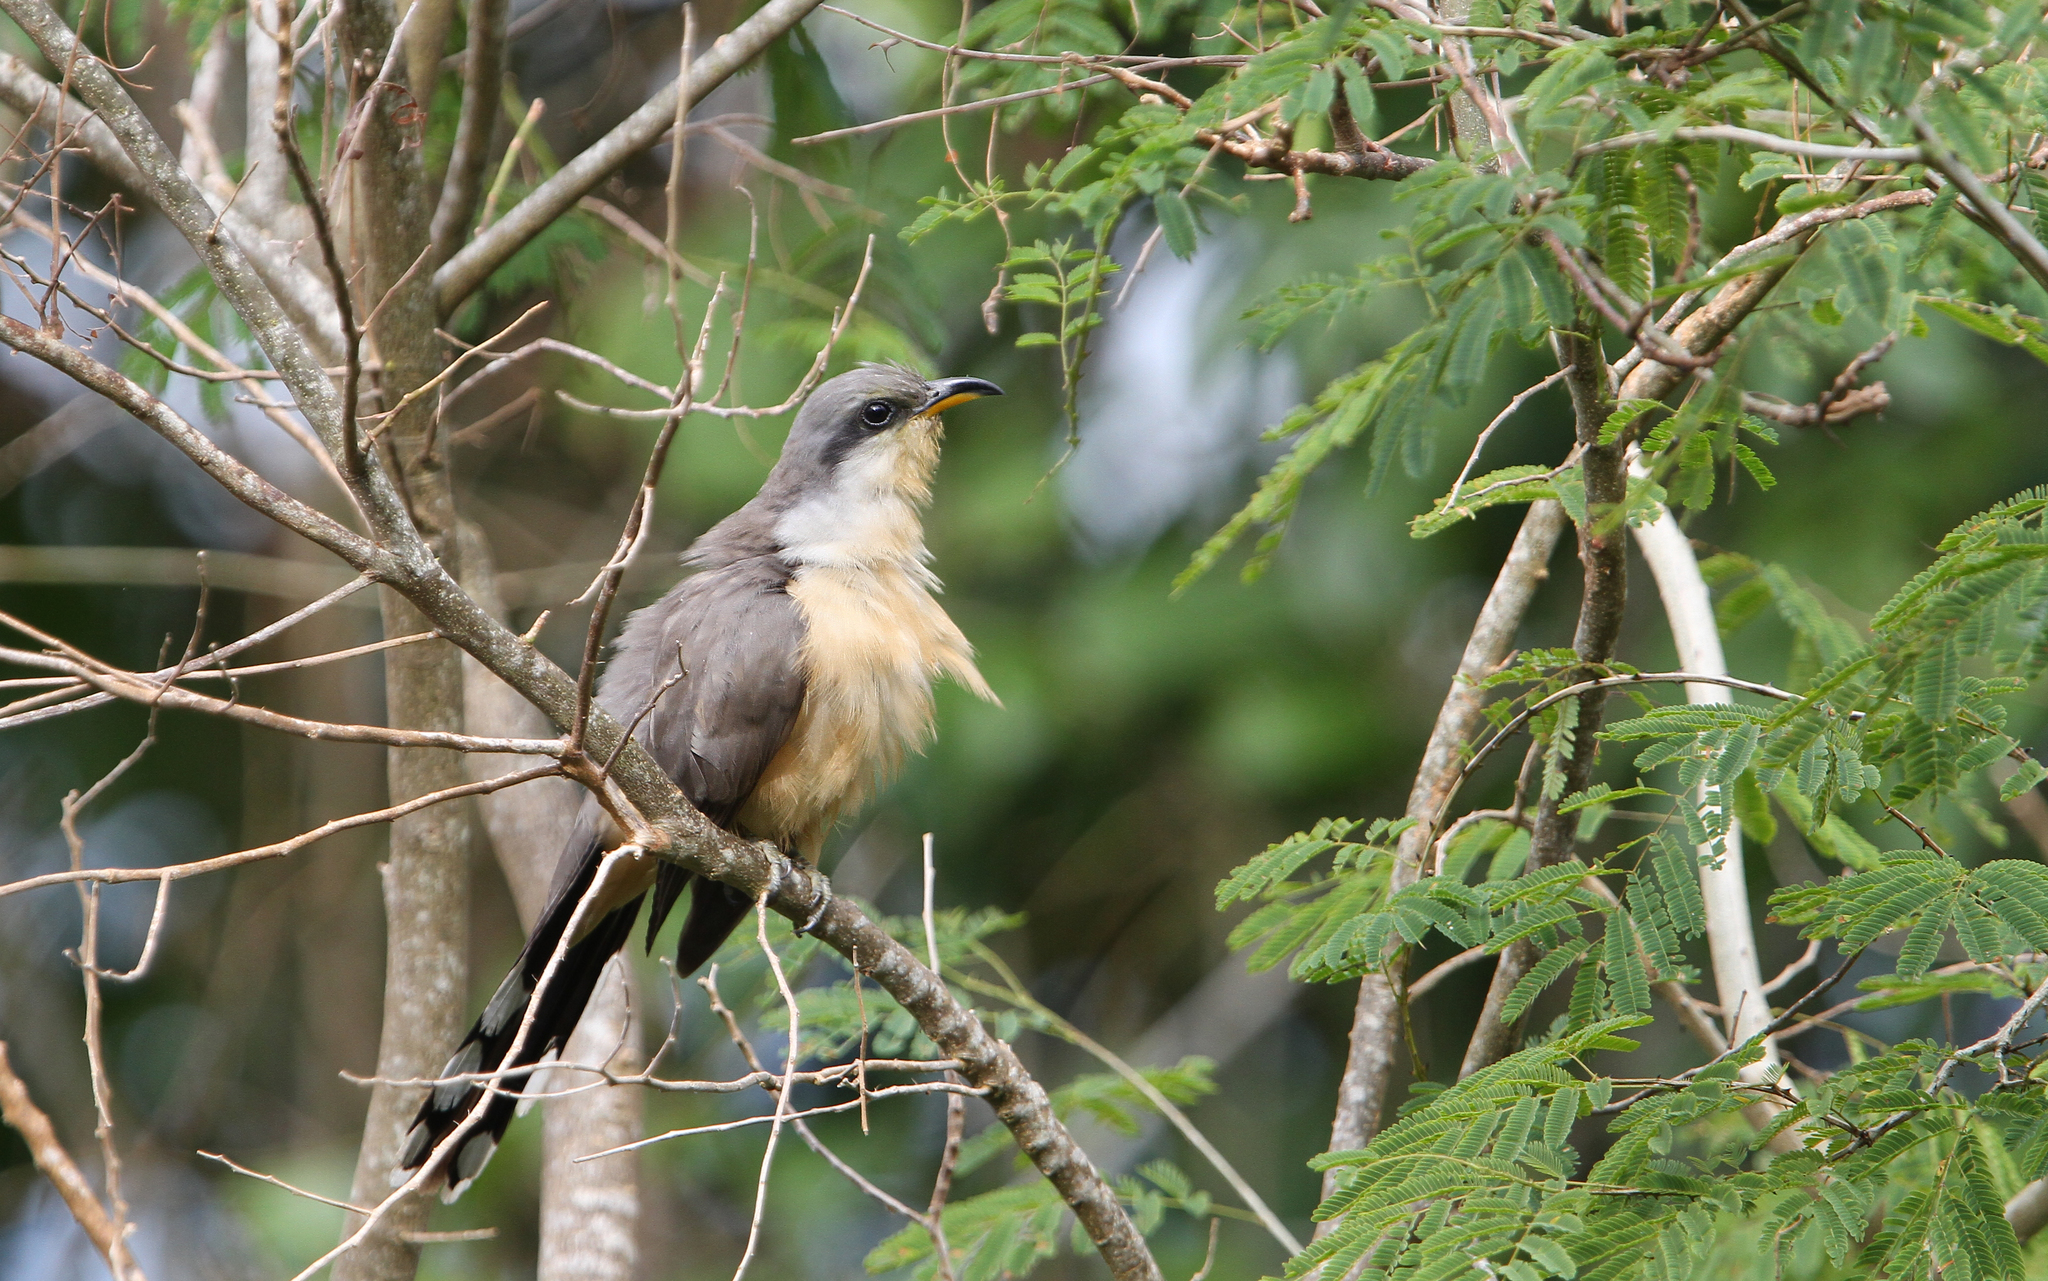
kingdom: Animalia
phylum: Chordata
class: Aves
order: Cuculiformes
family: Cuculidae
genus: Coccyzus
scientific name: Coccyzus minor
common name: Mangrove cuckoo
